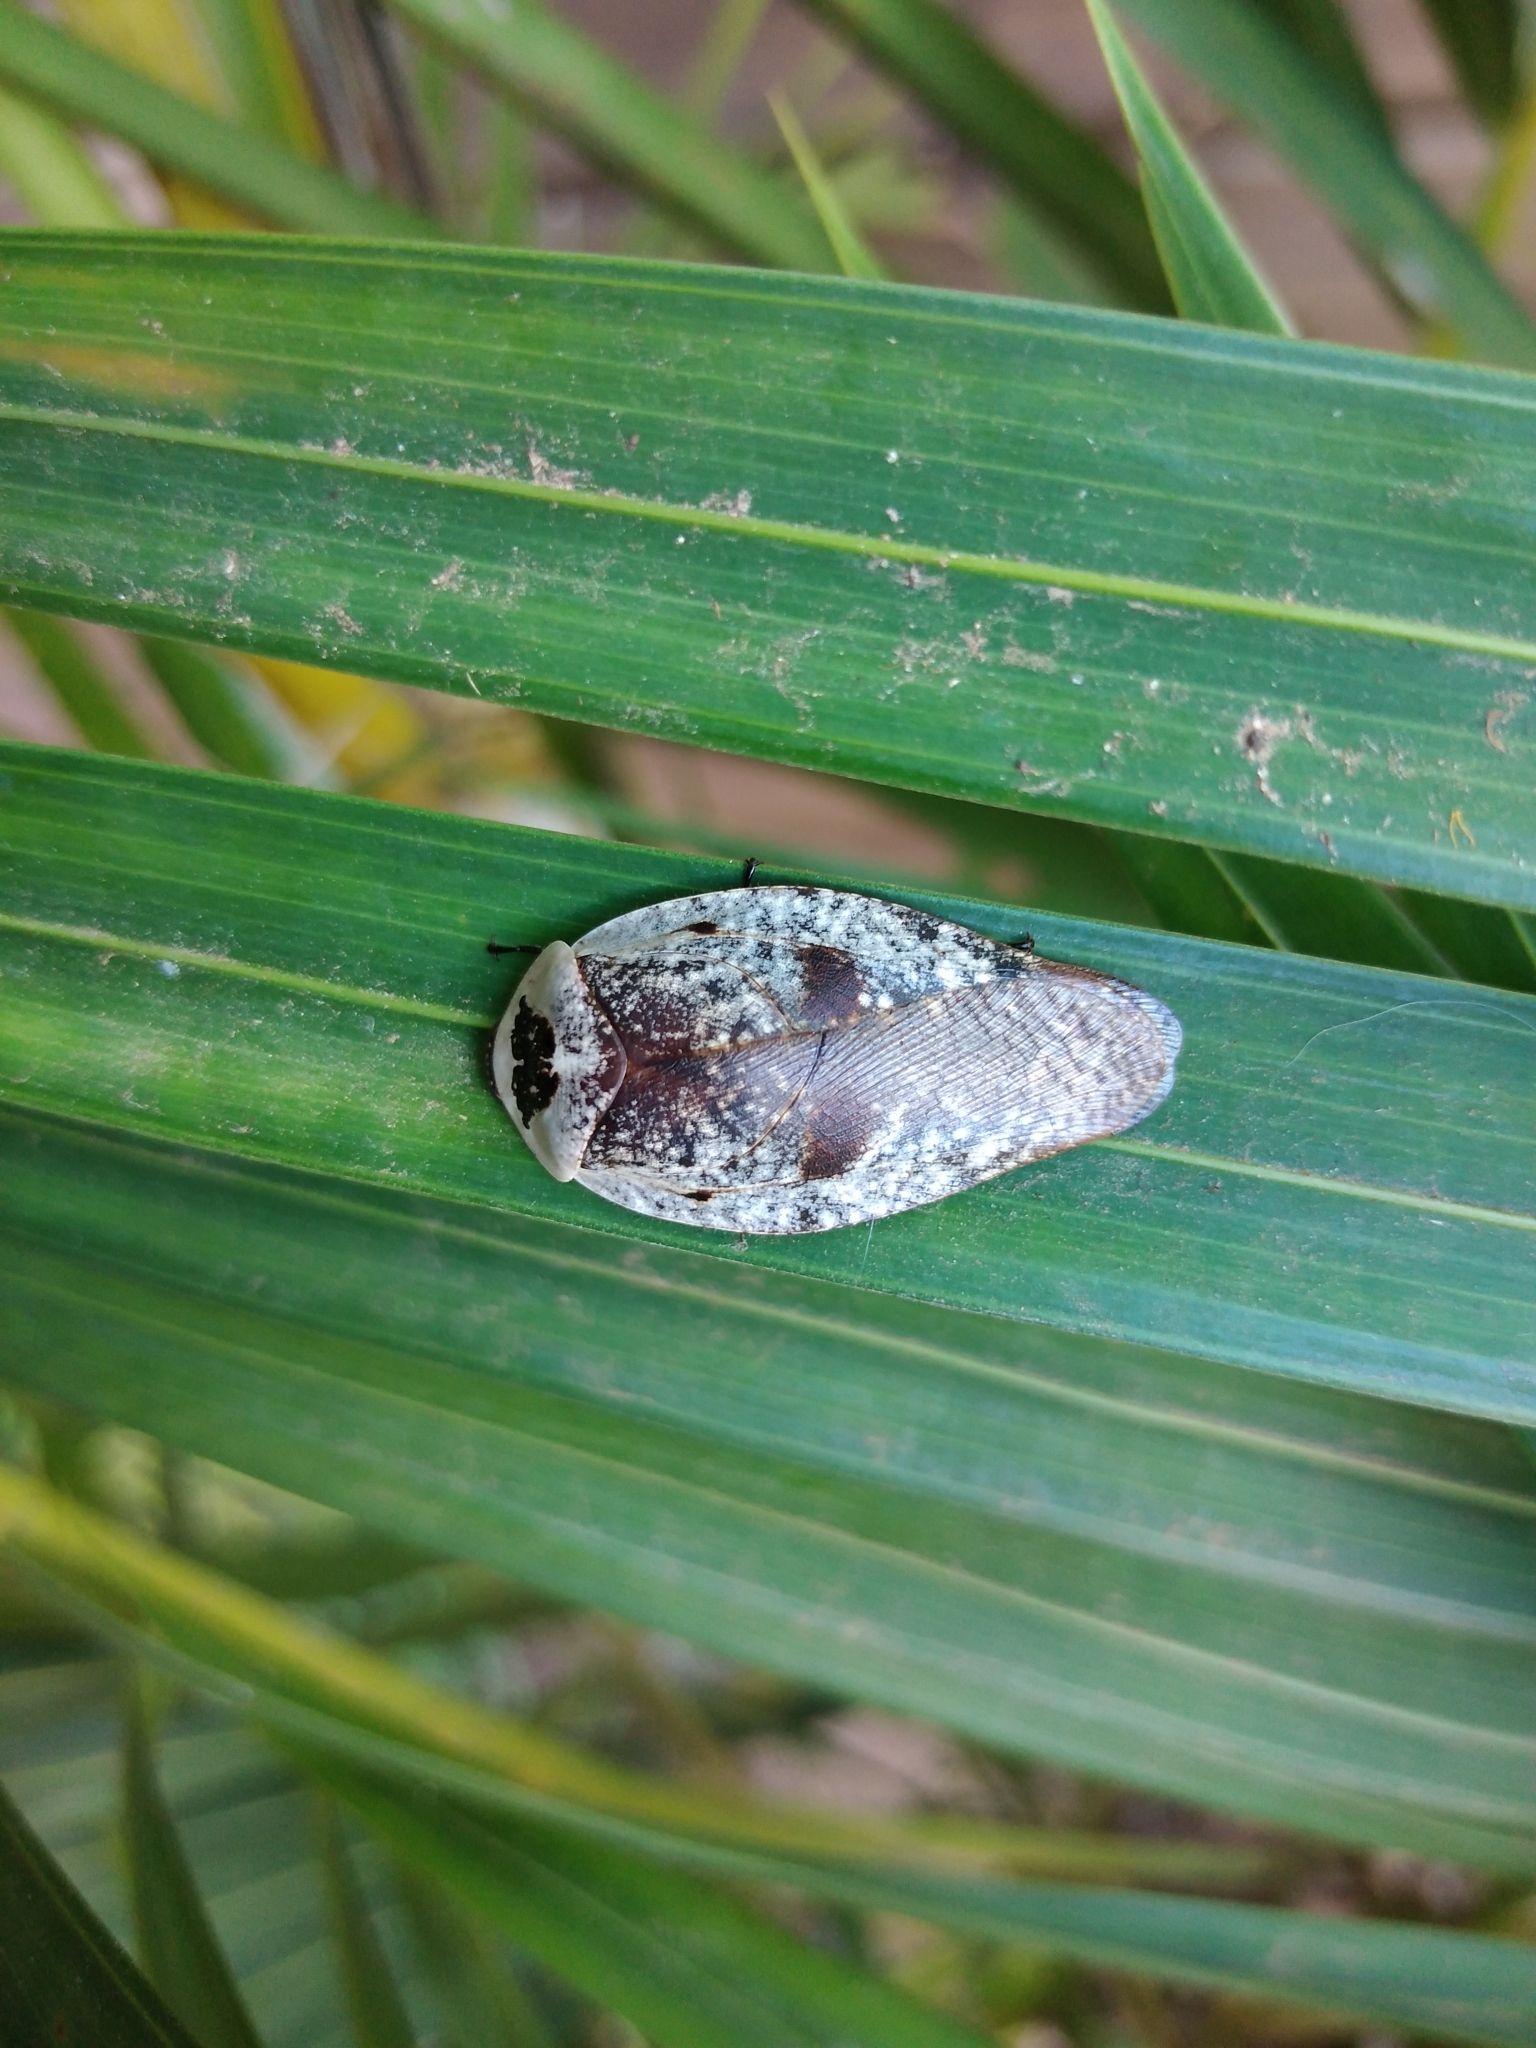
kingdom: Animalia
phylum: Arthropoda
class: Insecta
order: Blattodea
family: Blaberidae
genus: Gyna
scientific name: Gyna caffrorum
